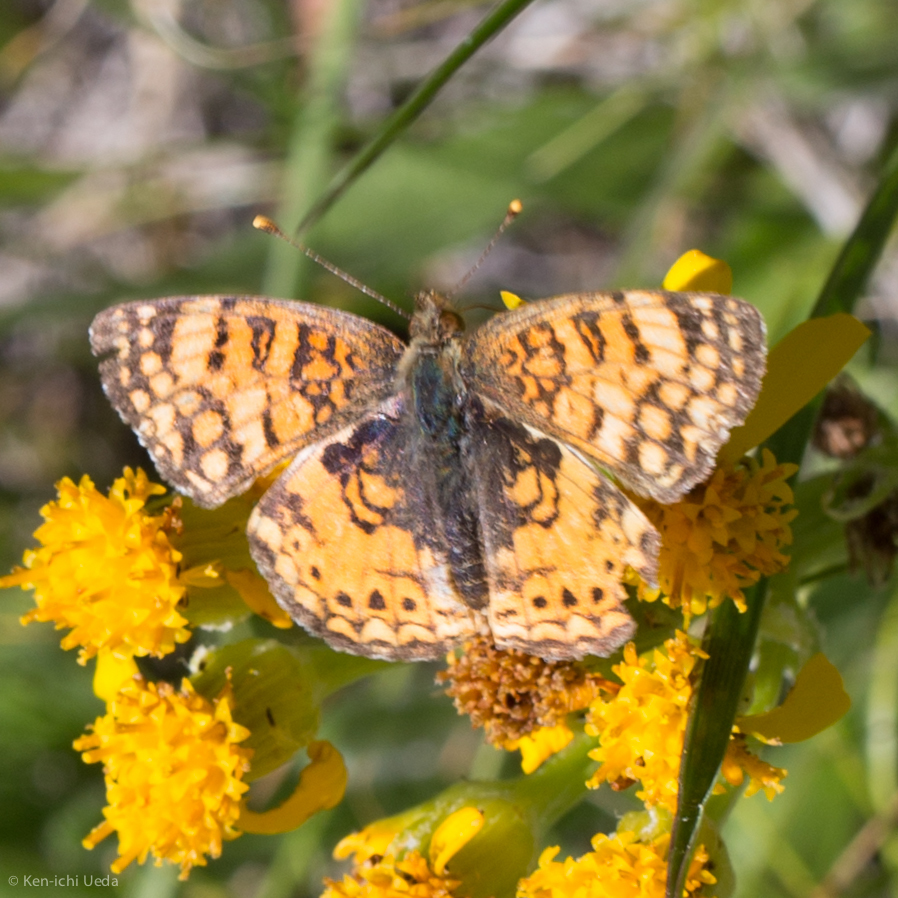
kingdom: Animalia
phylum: Arthropoda
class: Insecta
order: Lepidoptera
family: Nymphalidae
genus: Eresia
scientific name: Eresia aveyrona
